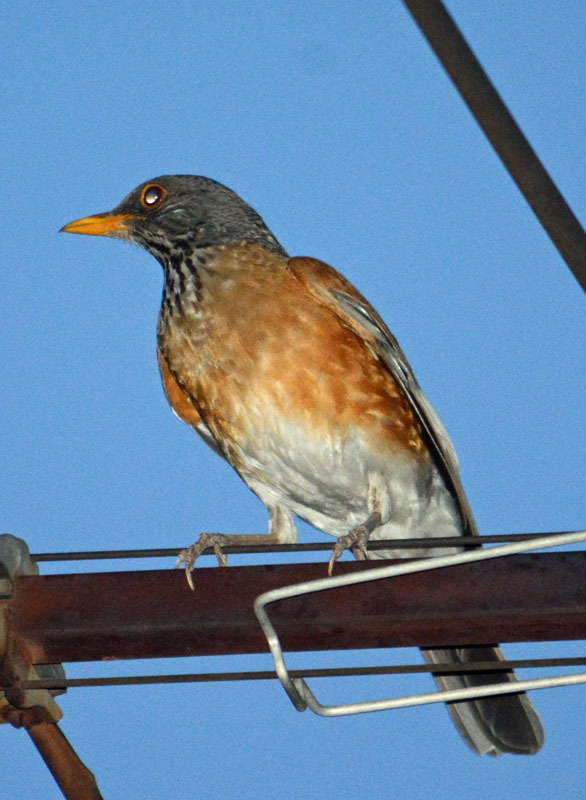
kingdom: Animalia
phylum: Chordata
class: Aves
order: Passeriformes
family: Turdidae
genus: Turdus
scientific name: Turdus rufopalliatus
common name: Rufous-backed robin
